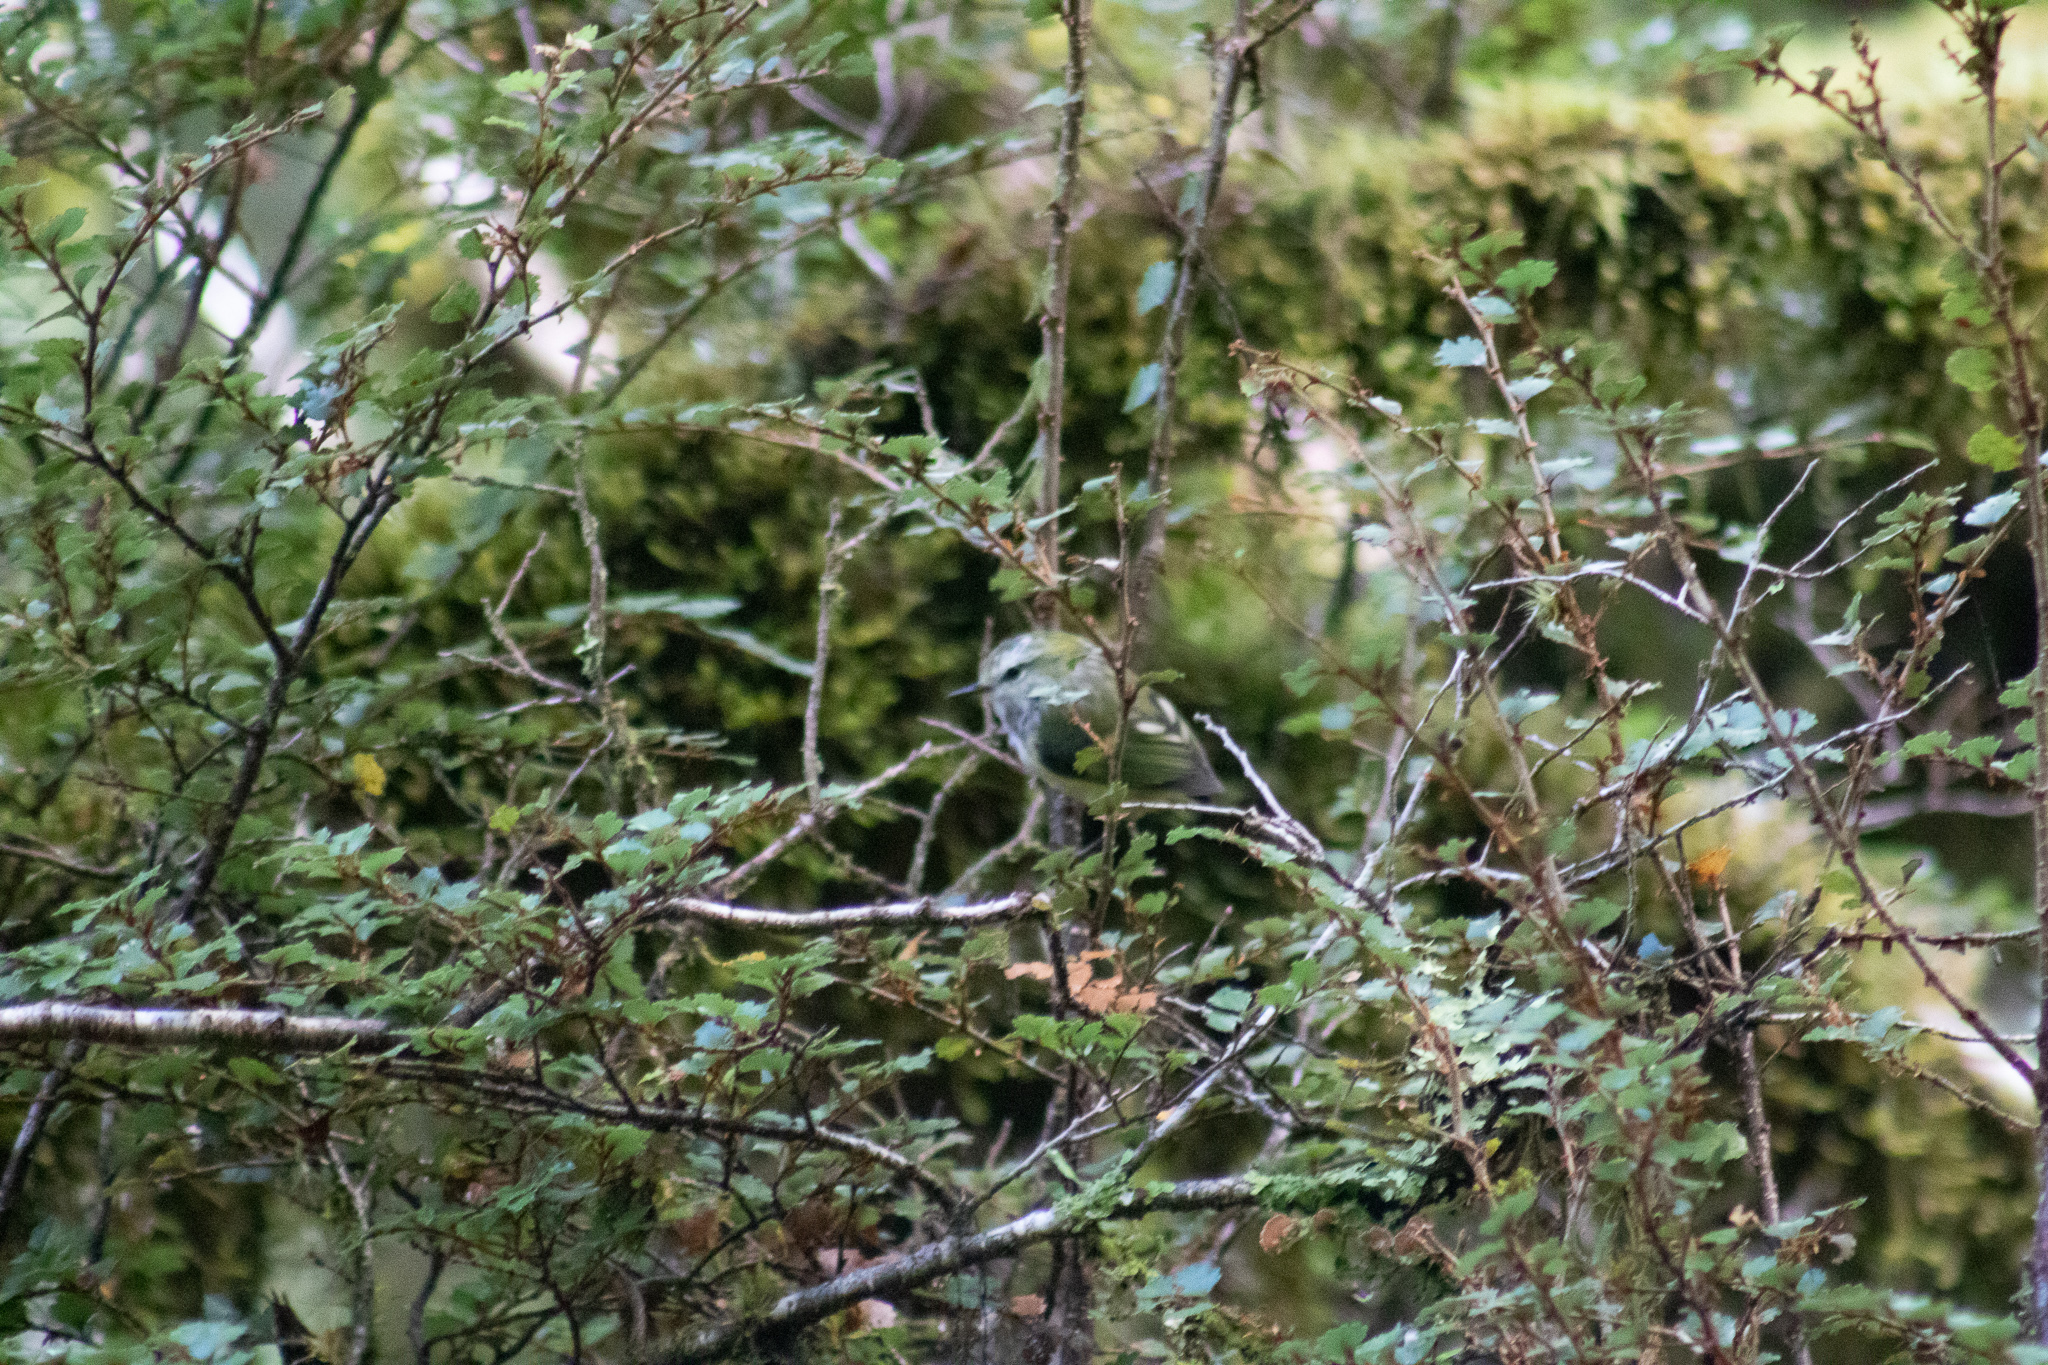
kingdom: Animalia
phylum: Chordata
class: Aves
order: Passeriformes
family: Acanthisittidae
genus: Acanthisitta
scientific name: Acanthisitta chloris
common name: Rifleman
